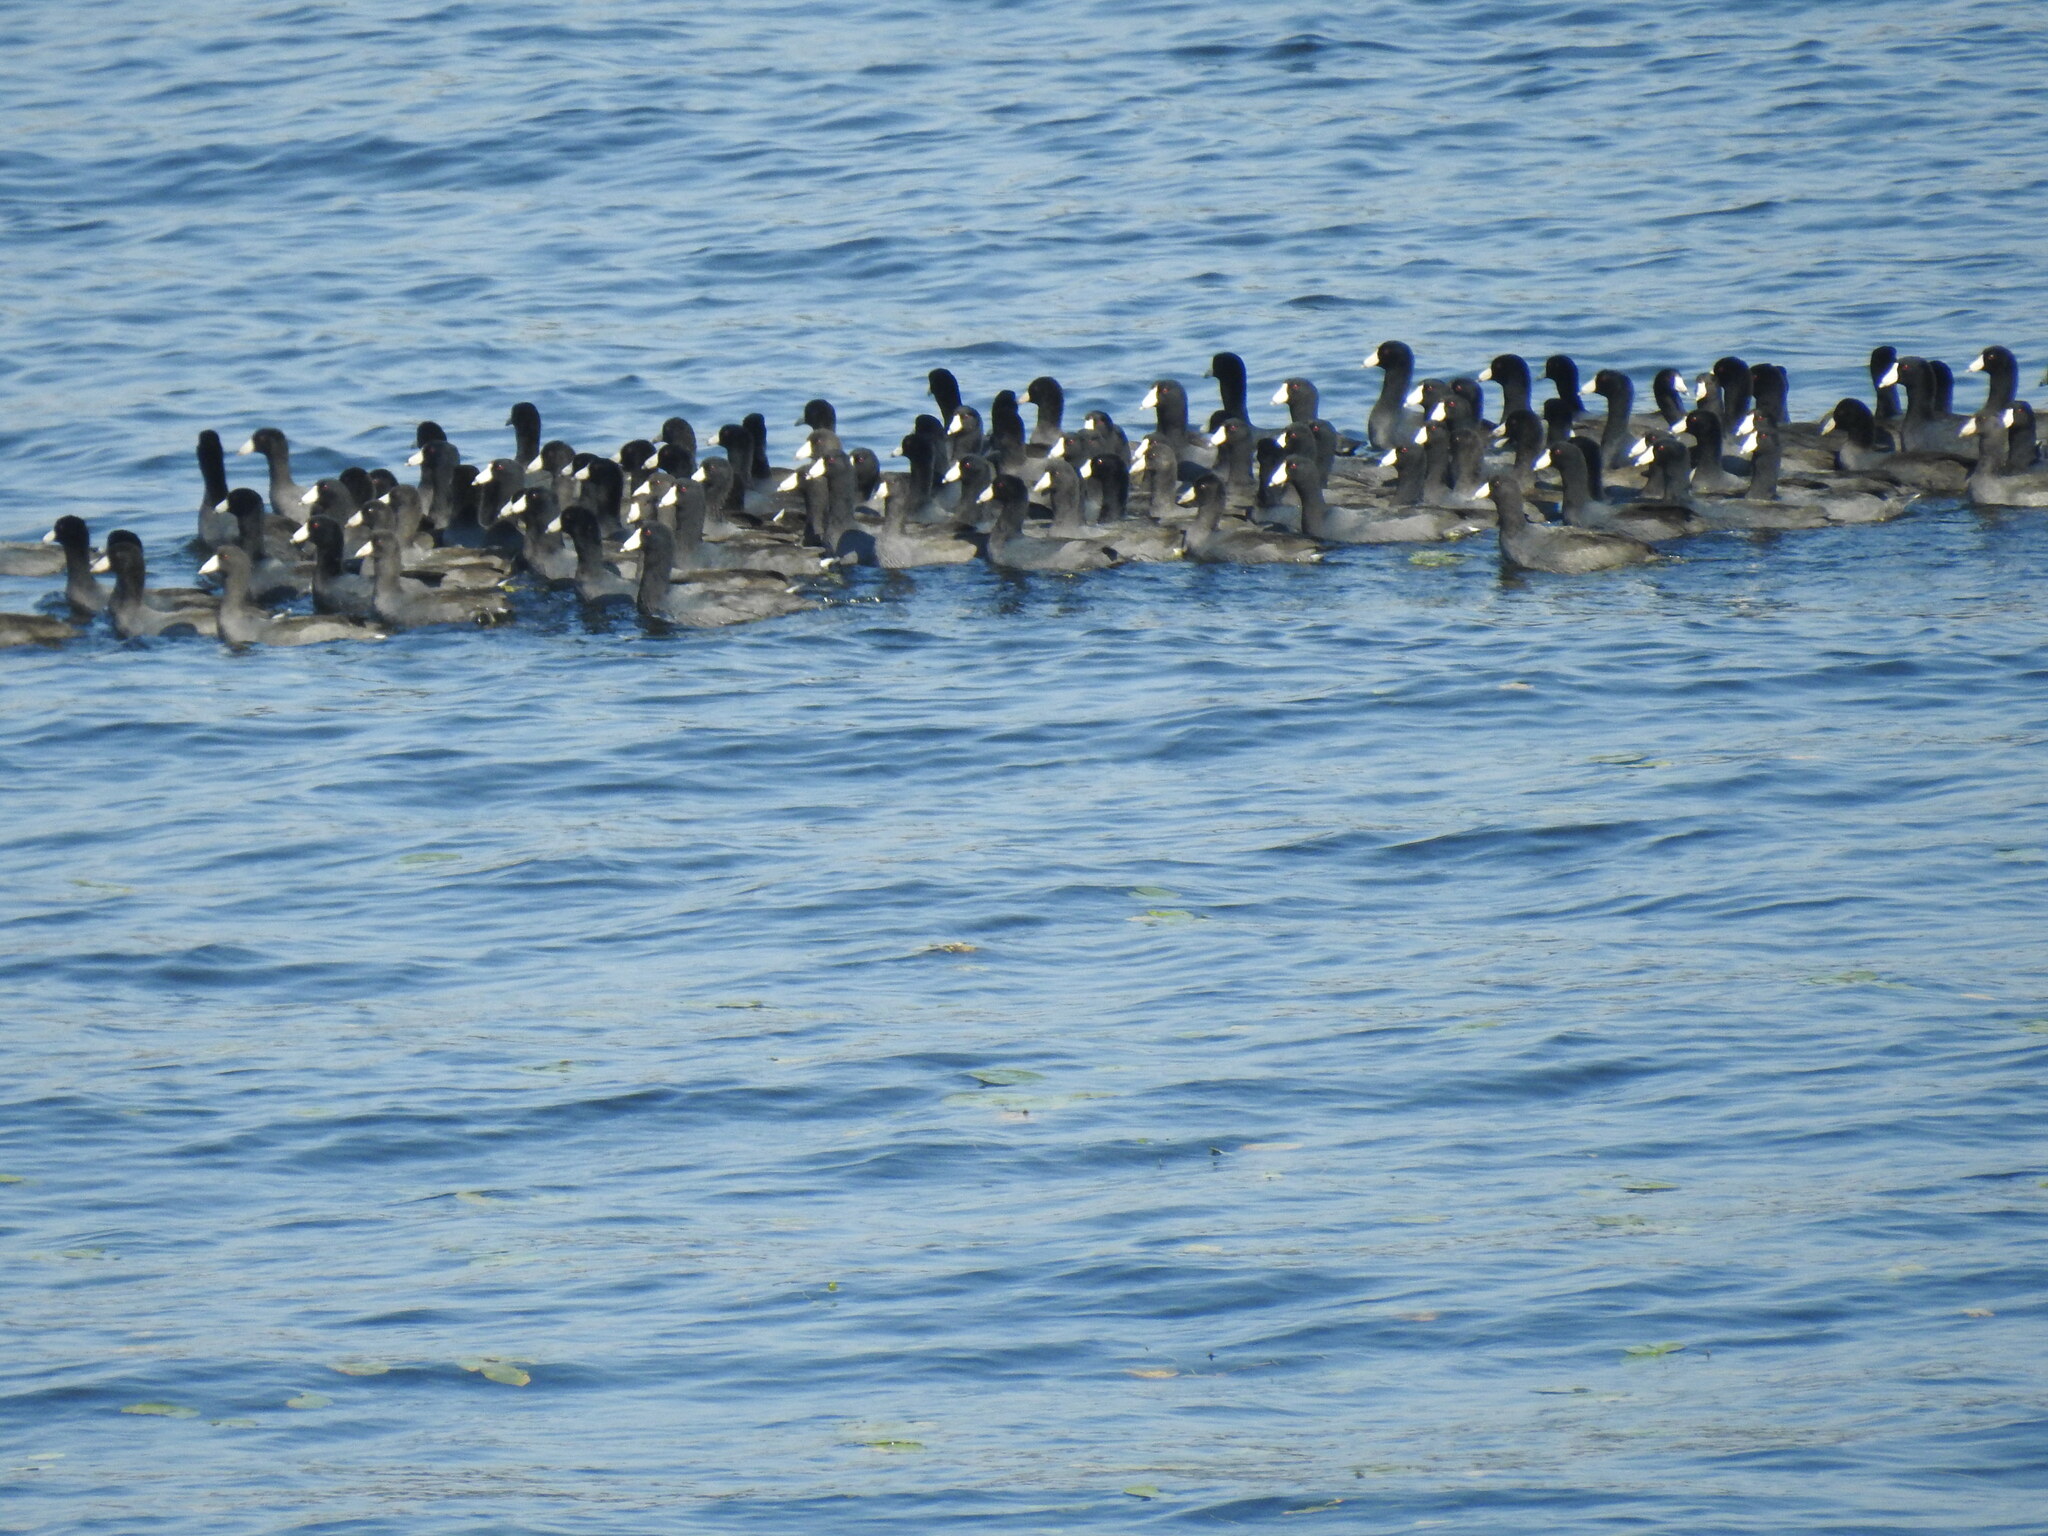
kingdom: Animalia
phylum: Chordata
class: Aves
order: Gruiformes
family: Rallidae
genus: Fulica
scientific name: Fulica americana
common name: American coot
